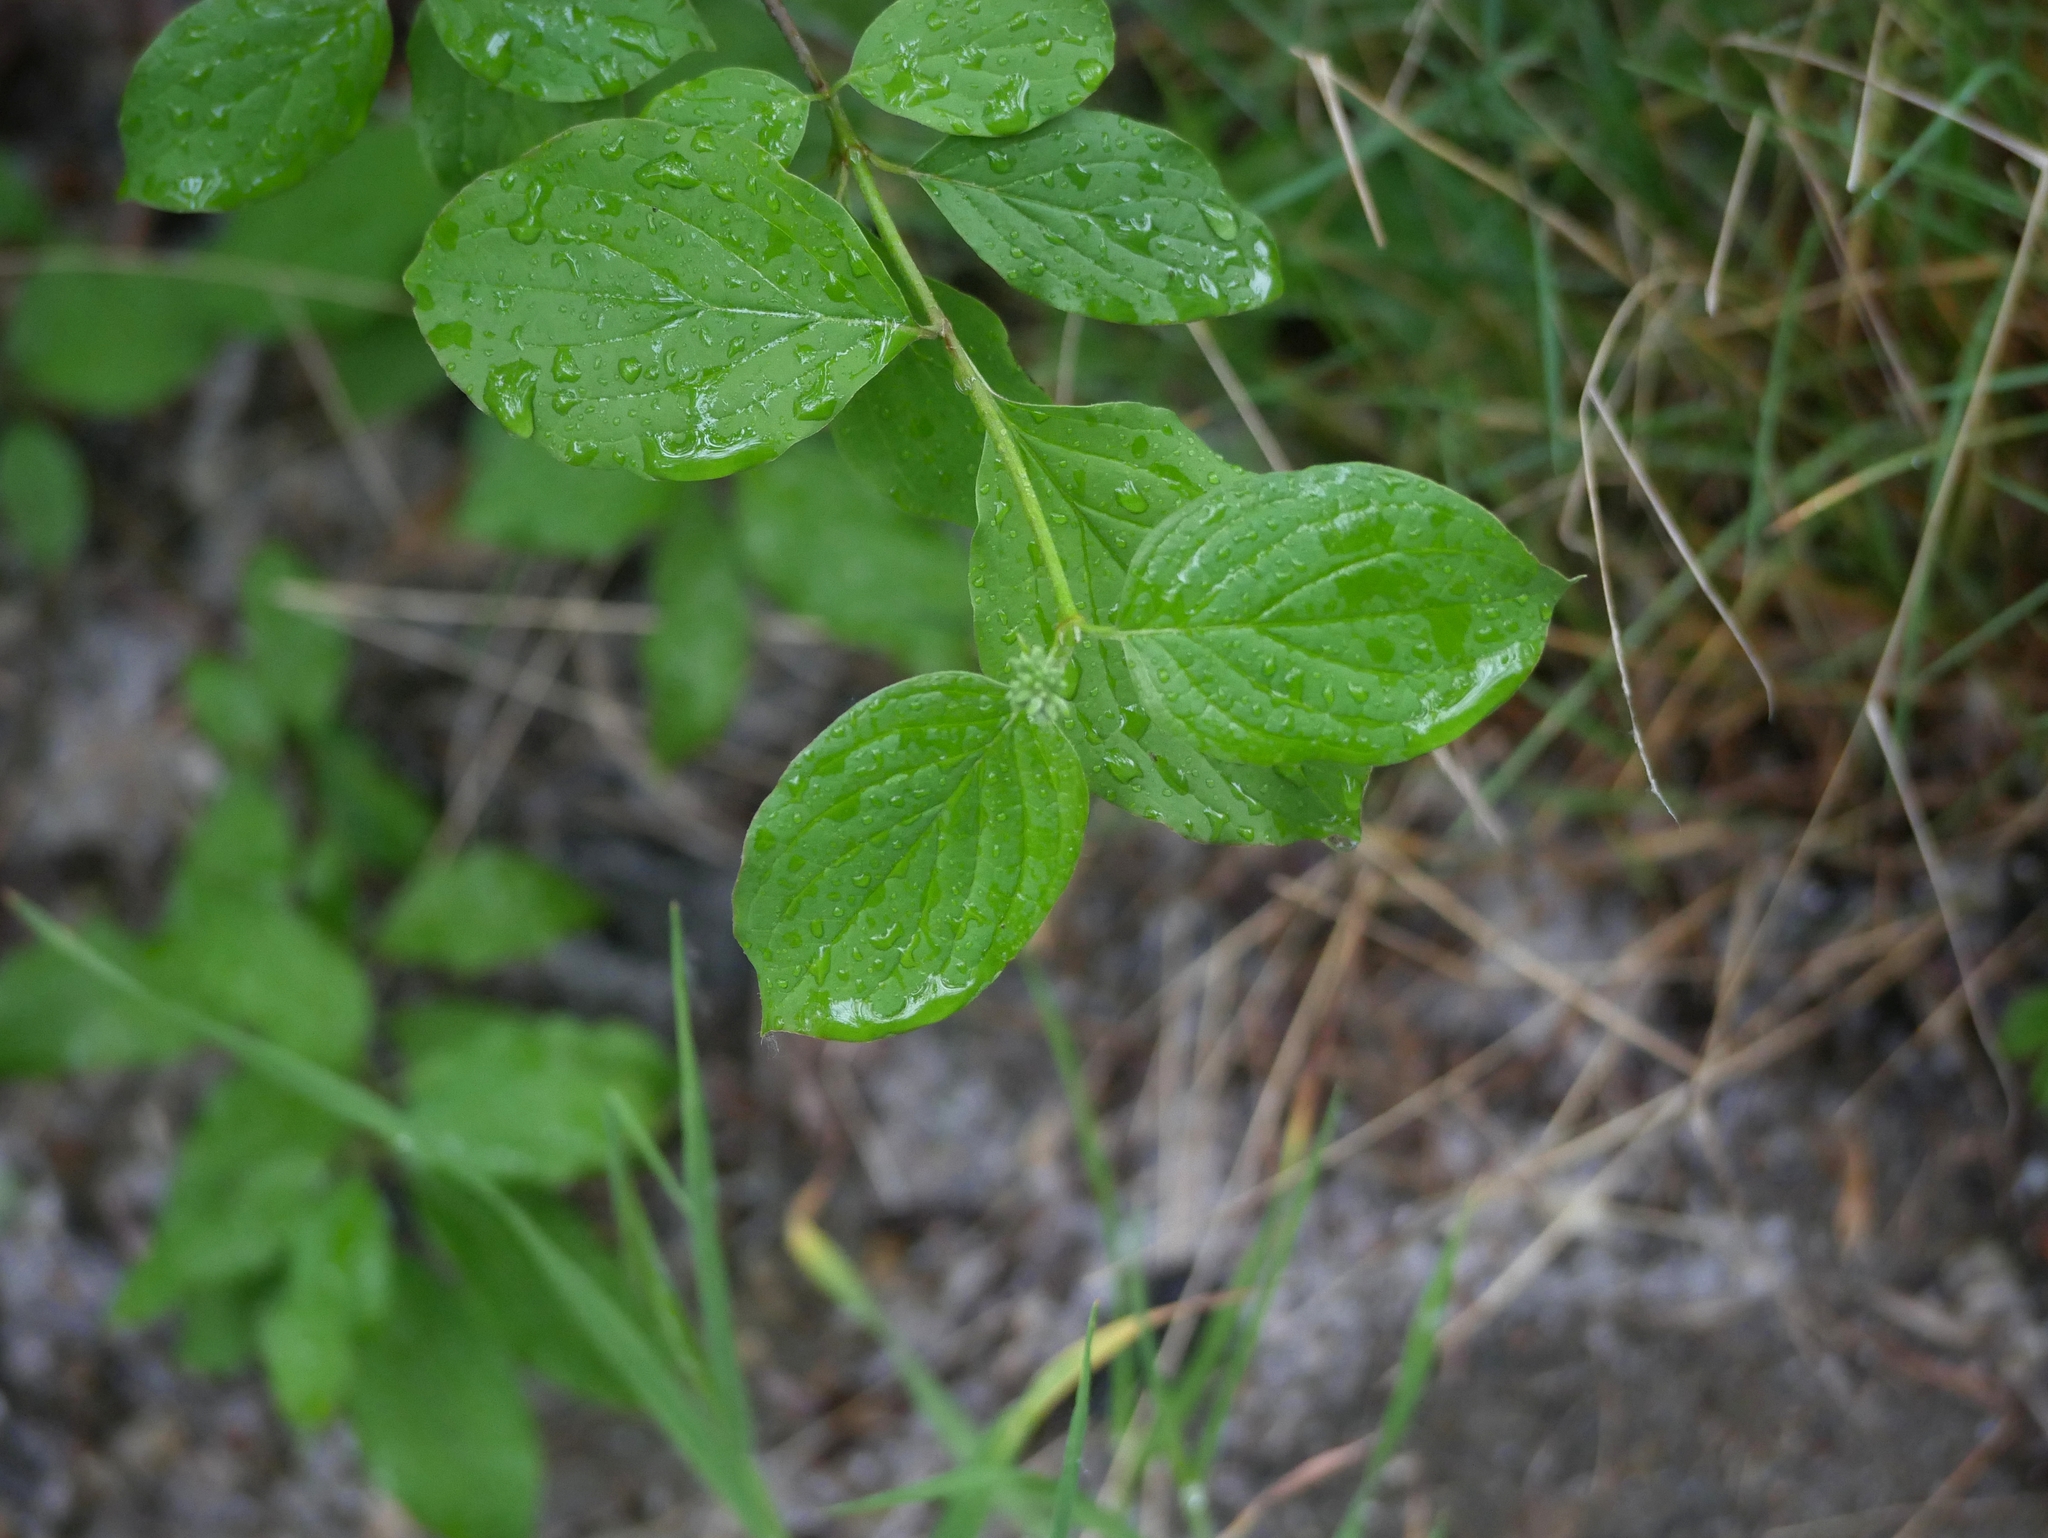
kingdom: Plantae
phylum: Tracheophyta
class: Magnoliopsida
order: Cornales
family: Cornaceae
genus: Cornus
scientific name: Cornus sanguinea
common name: Dogwood
